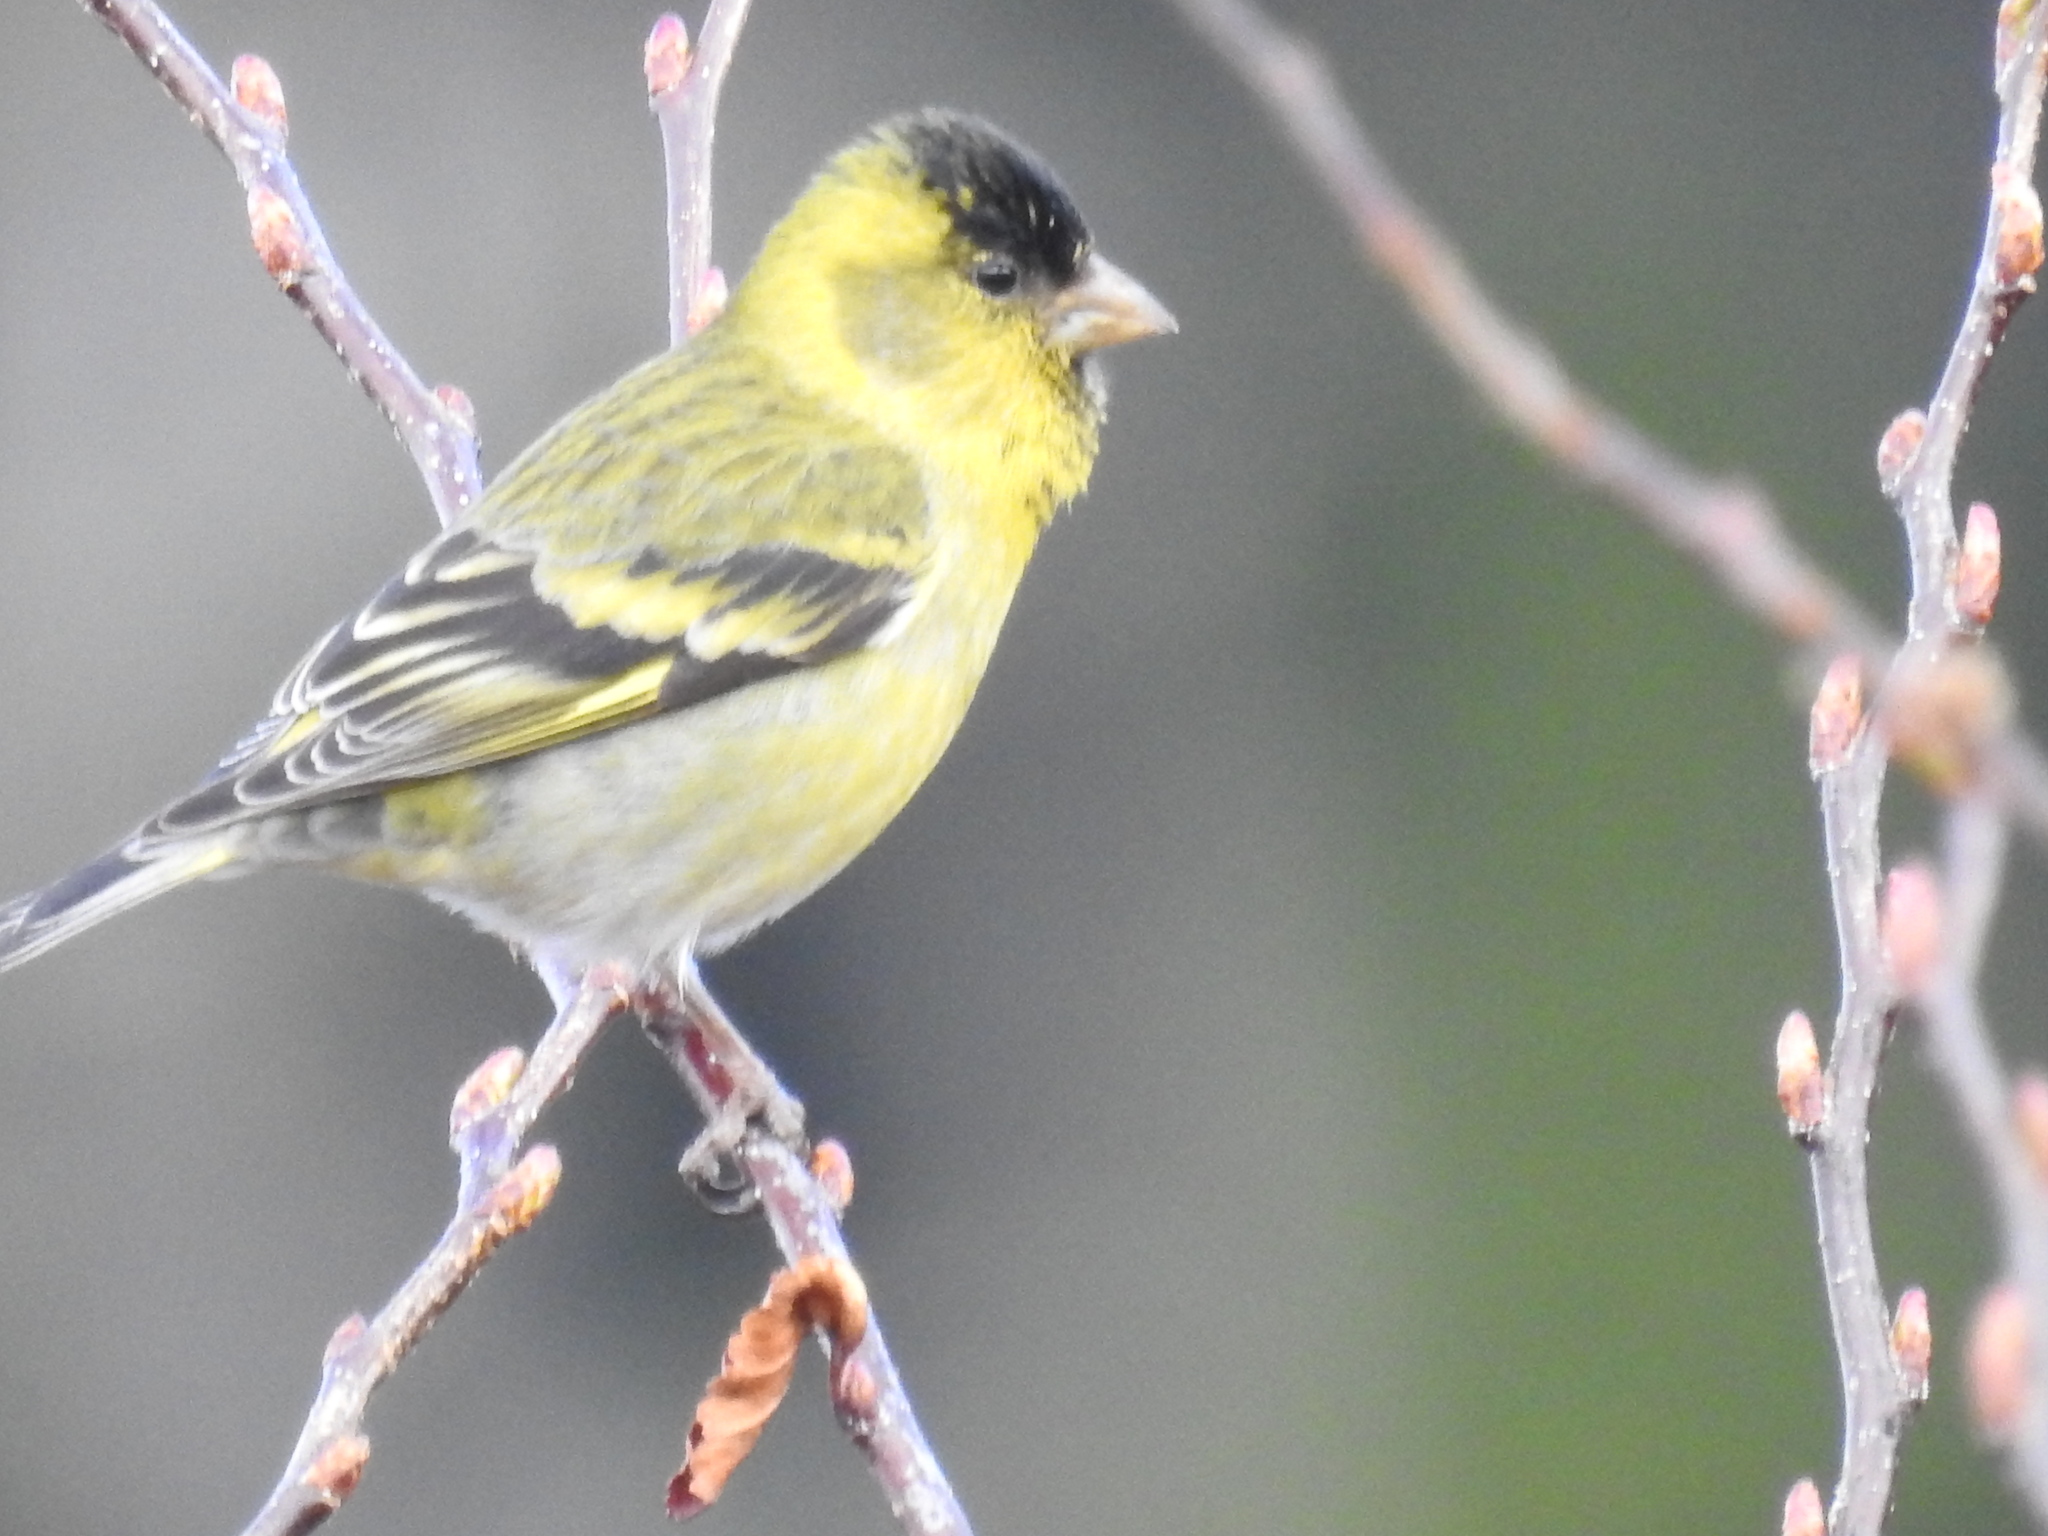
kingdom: Animalia
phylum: Chordata
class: Aves
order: Passeriformes
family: Fringillidae
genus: Spinus
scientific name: Spinus barbatus
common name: Black-chinned siskin
